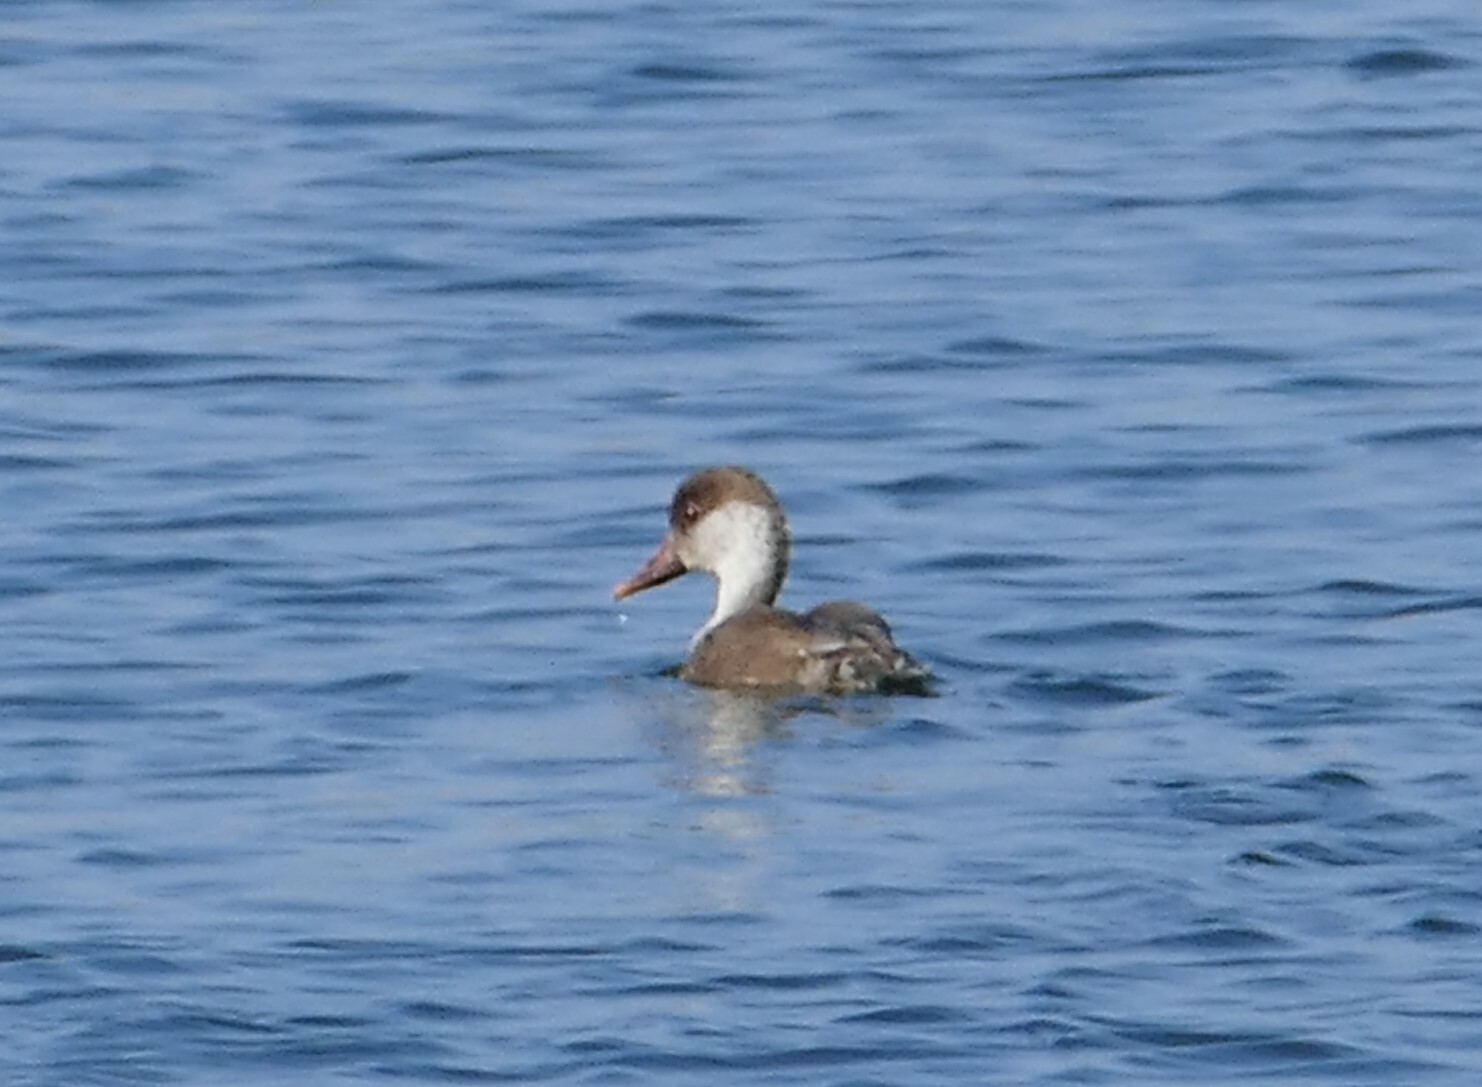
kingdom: Animalia
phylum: Chordata
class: Aves
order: Anseriformes
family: Anatidae
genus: Netta
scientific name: Netta rufina
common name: Red-crested pochard
